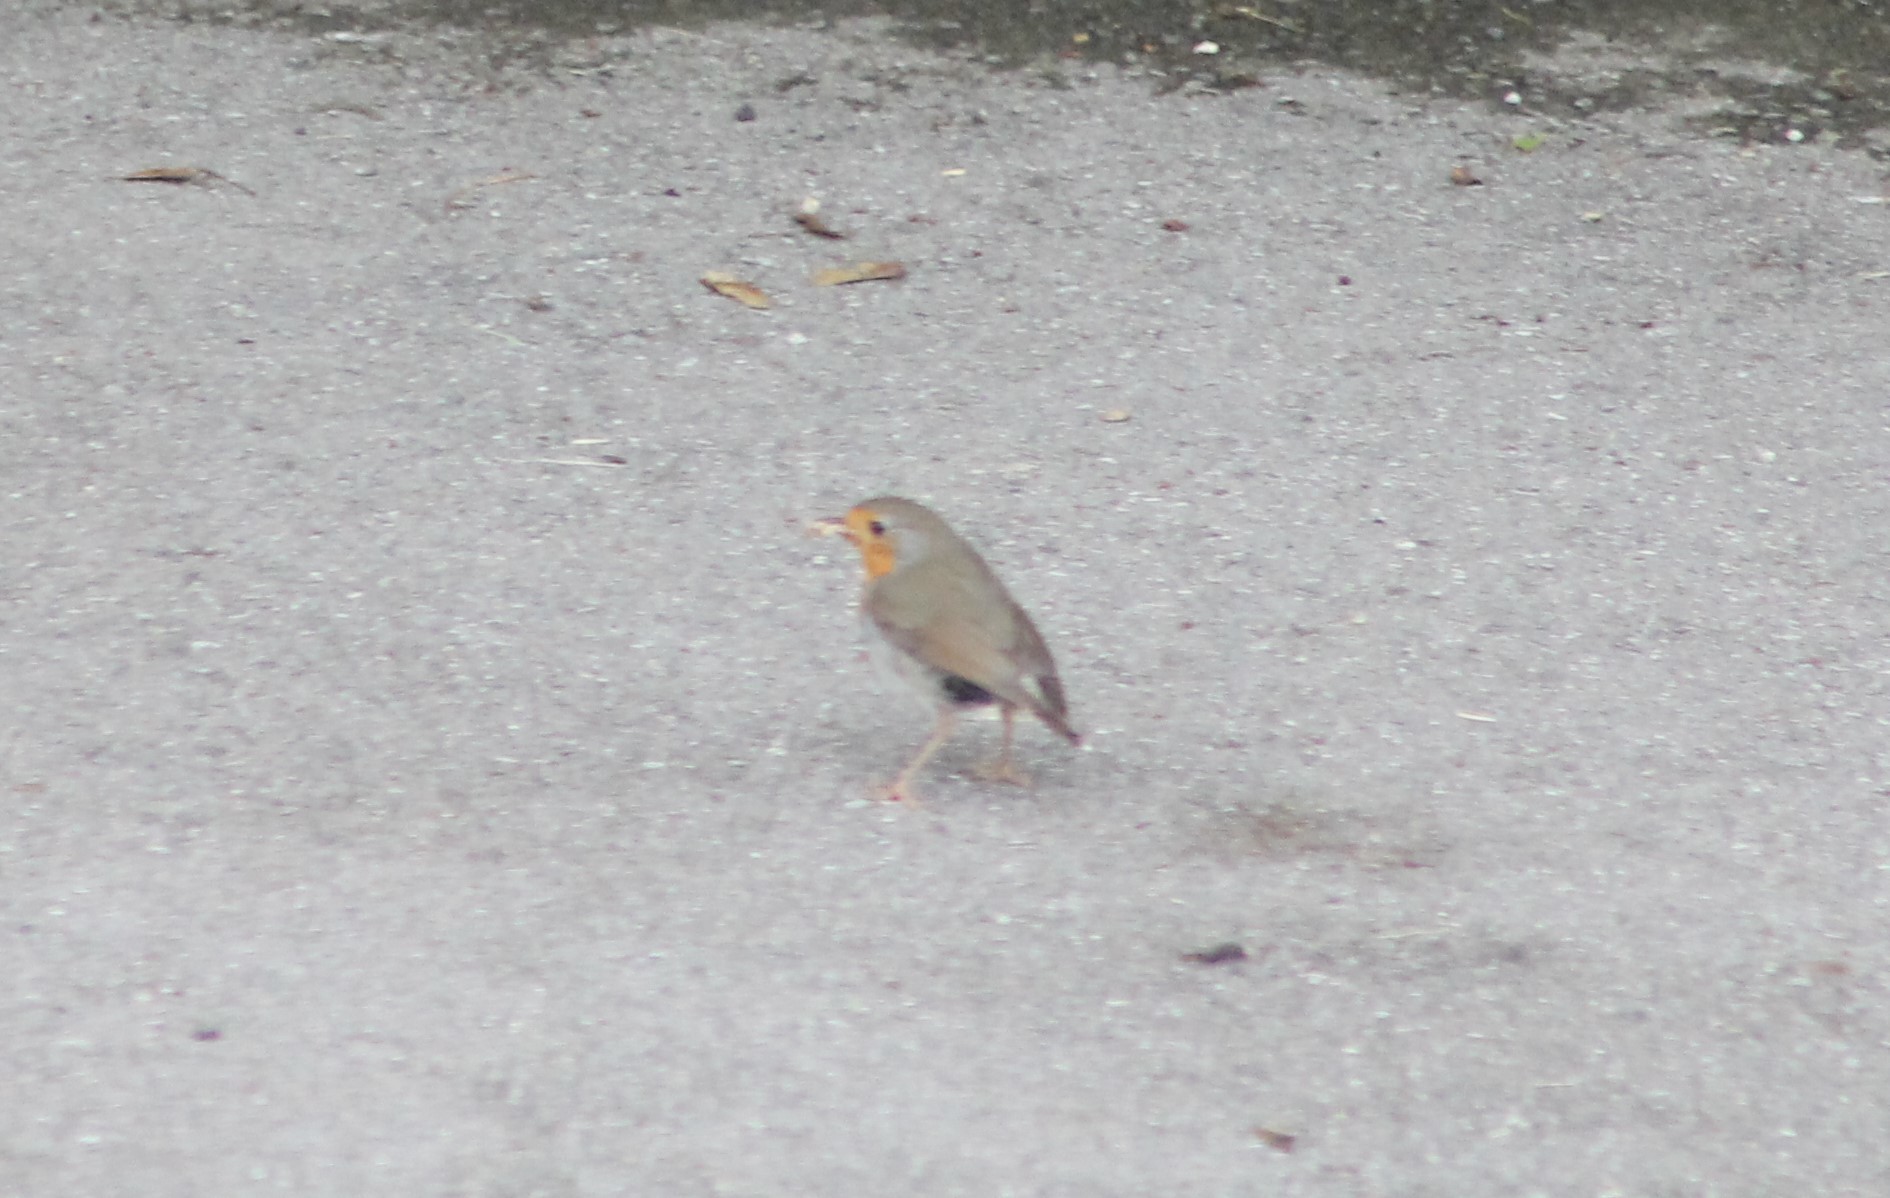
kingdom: Animalia
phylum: Chordata
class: Aves
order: Passeriformes
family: Muscicapidae
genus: Erithacus
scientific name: Erithacus rubecula
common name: European robin
